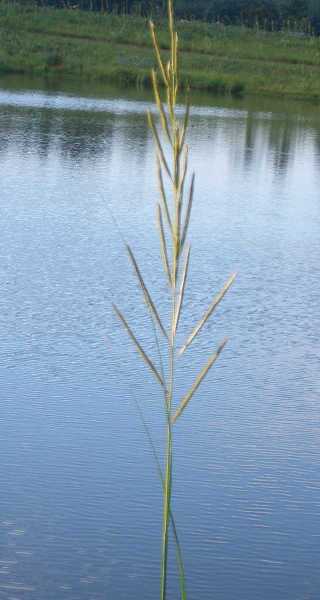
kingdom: Plantae
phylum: Tracheophyta
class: Liliopsida
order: Poales
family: Poaceae
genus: Sporobolus
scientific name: Sporobolus michauxianus
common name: Freshwater cordgrass
